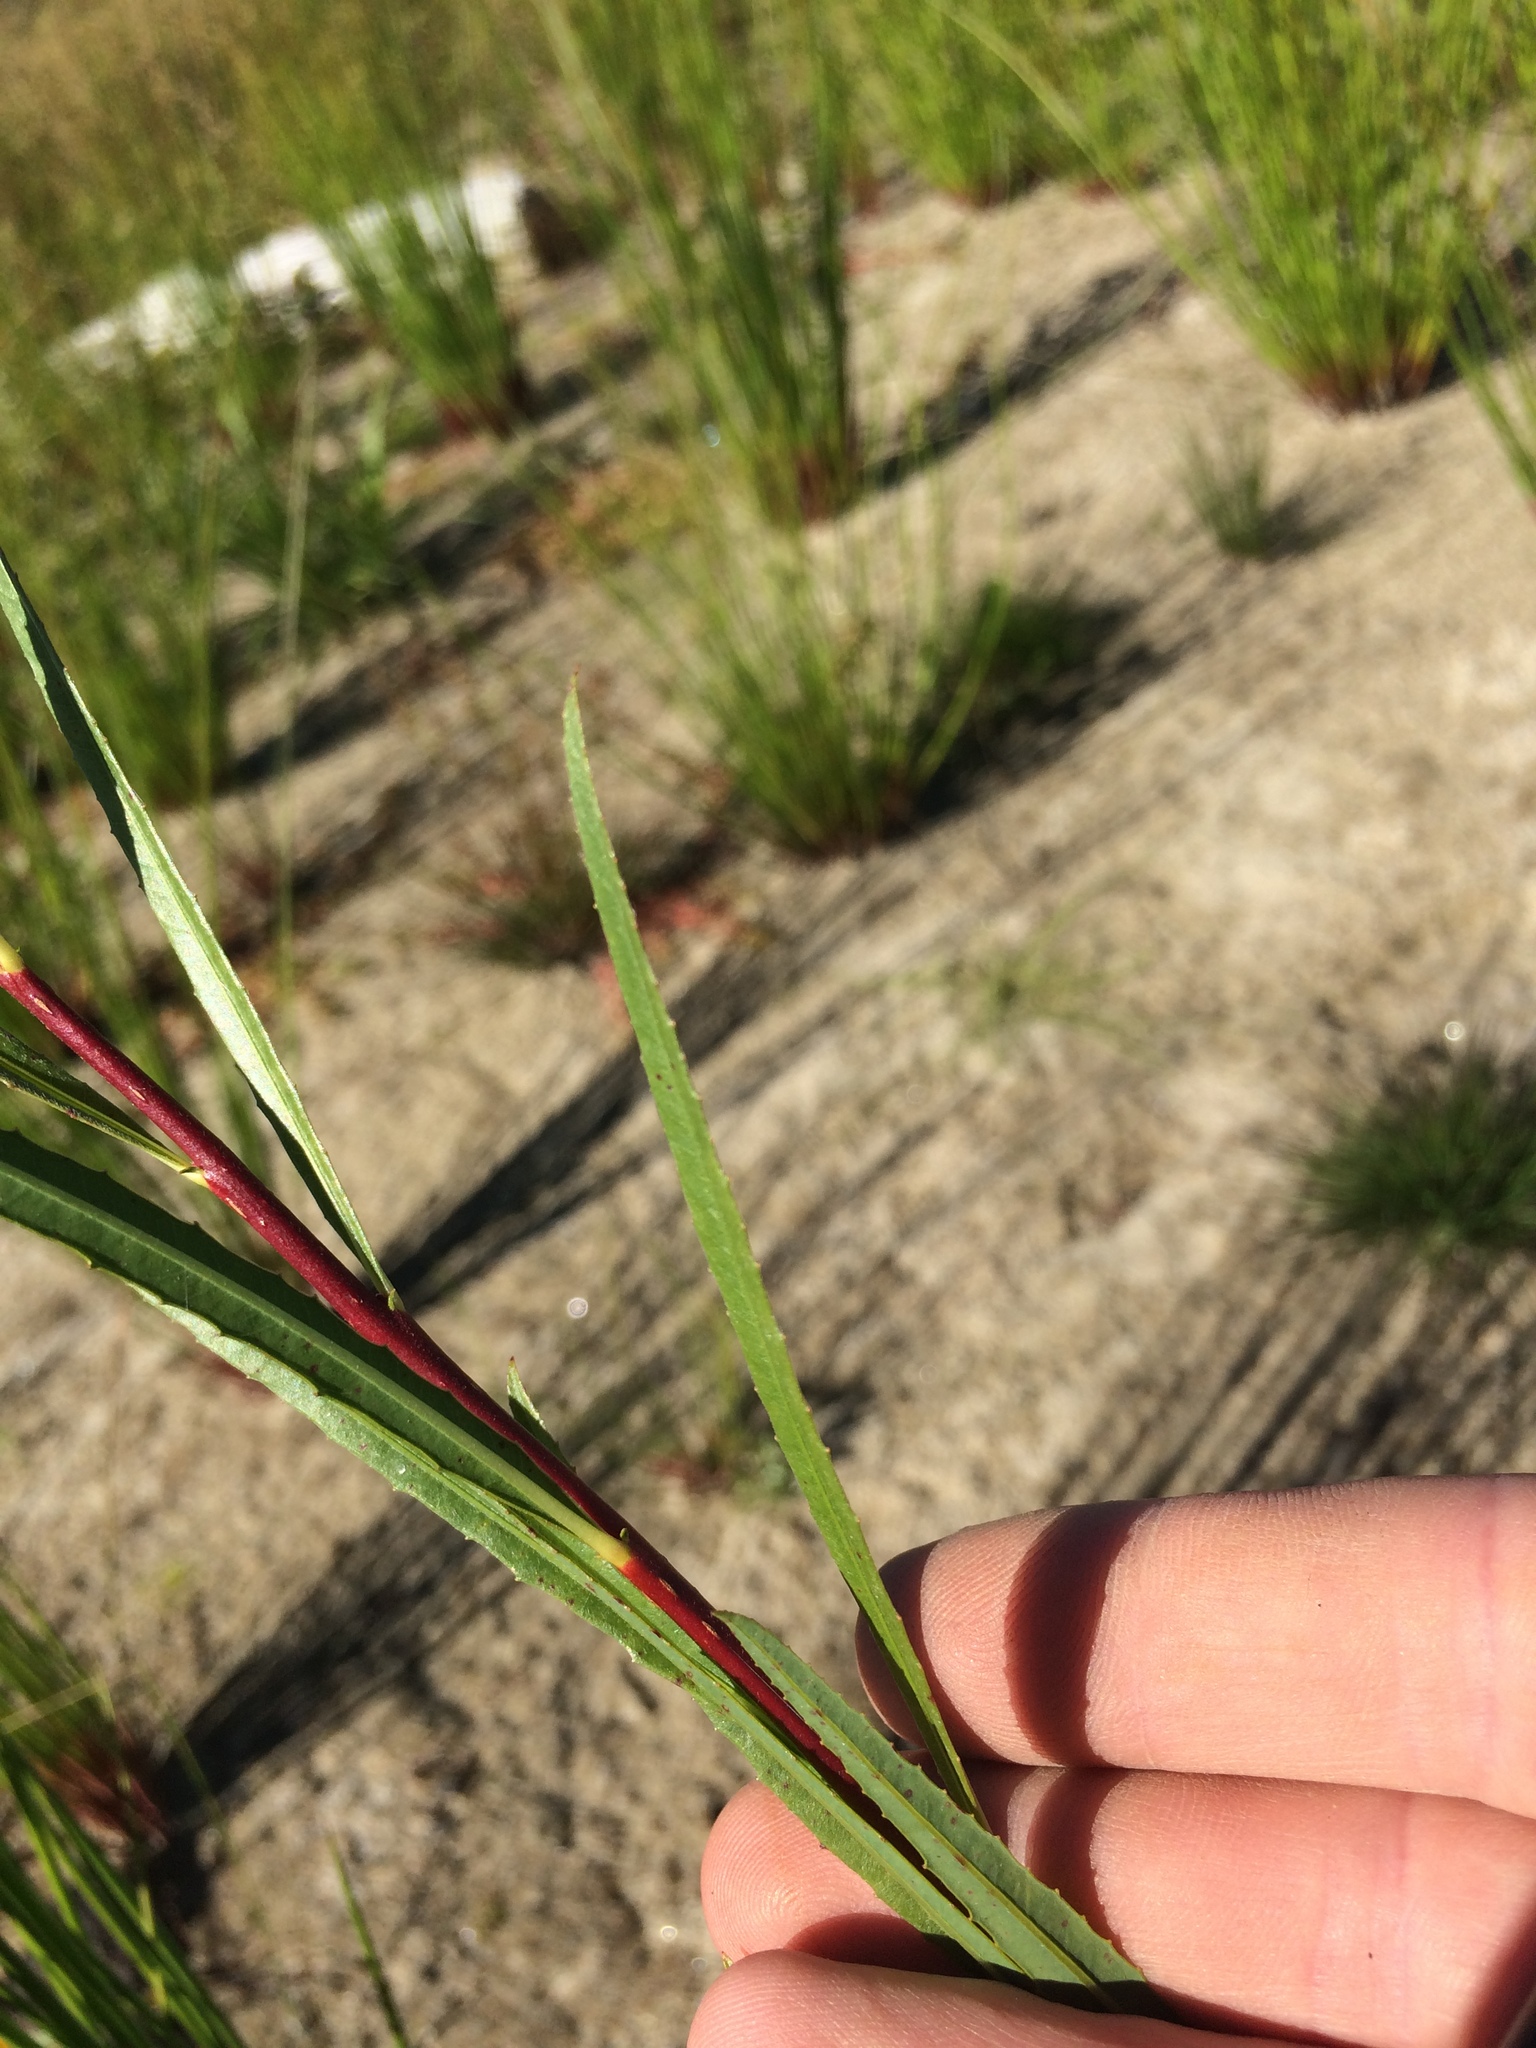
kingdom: Plantae
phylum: Tracheophyta
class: Magnoliopsida
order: Malpighiales
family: Salicaceae
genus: Salix
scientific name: Salix interior
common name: Sandbar willow
